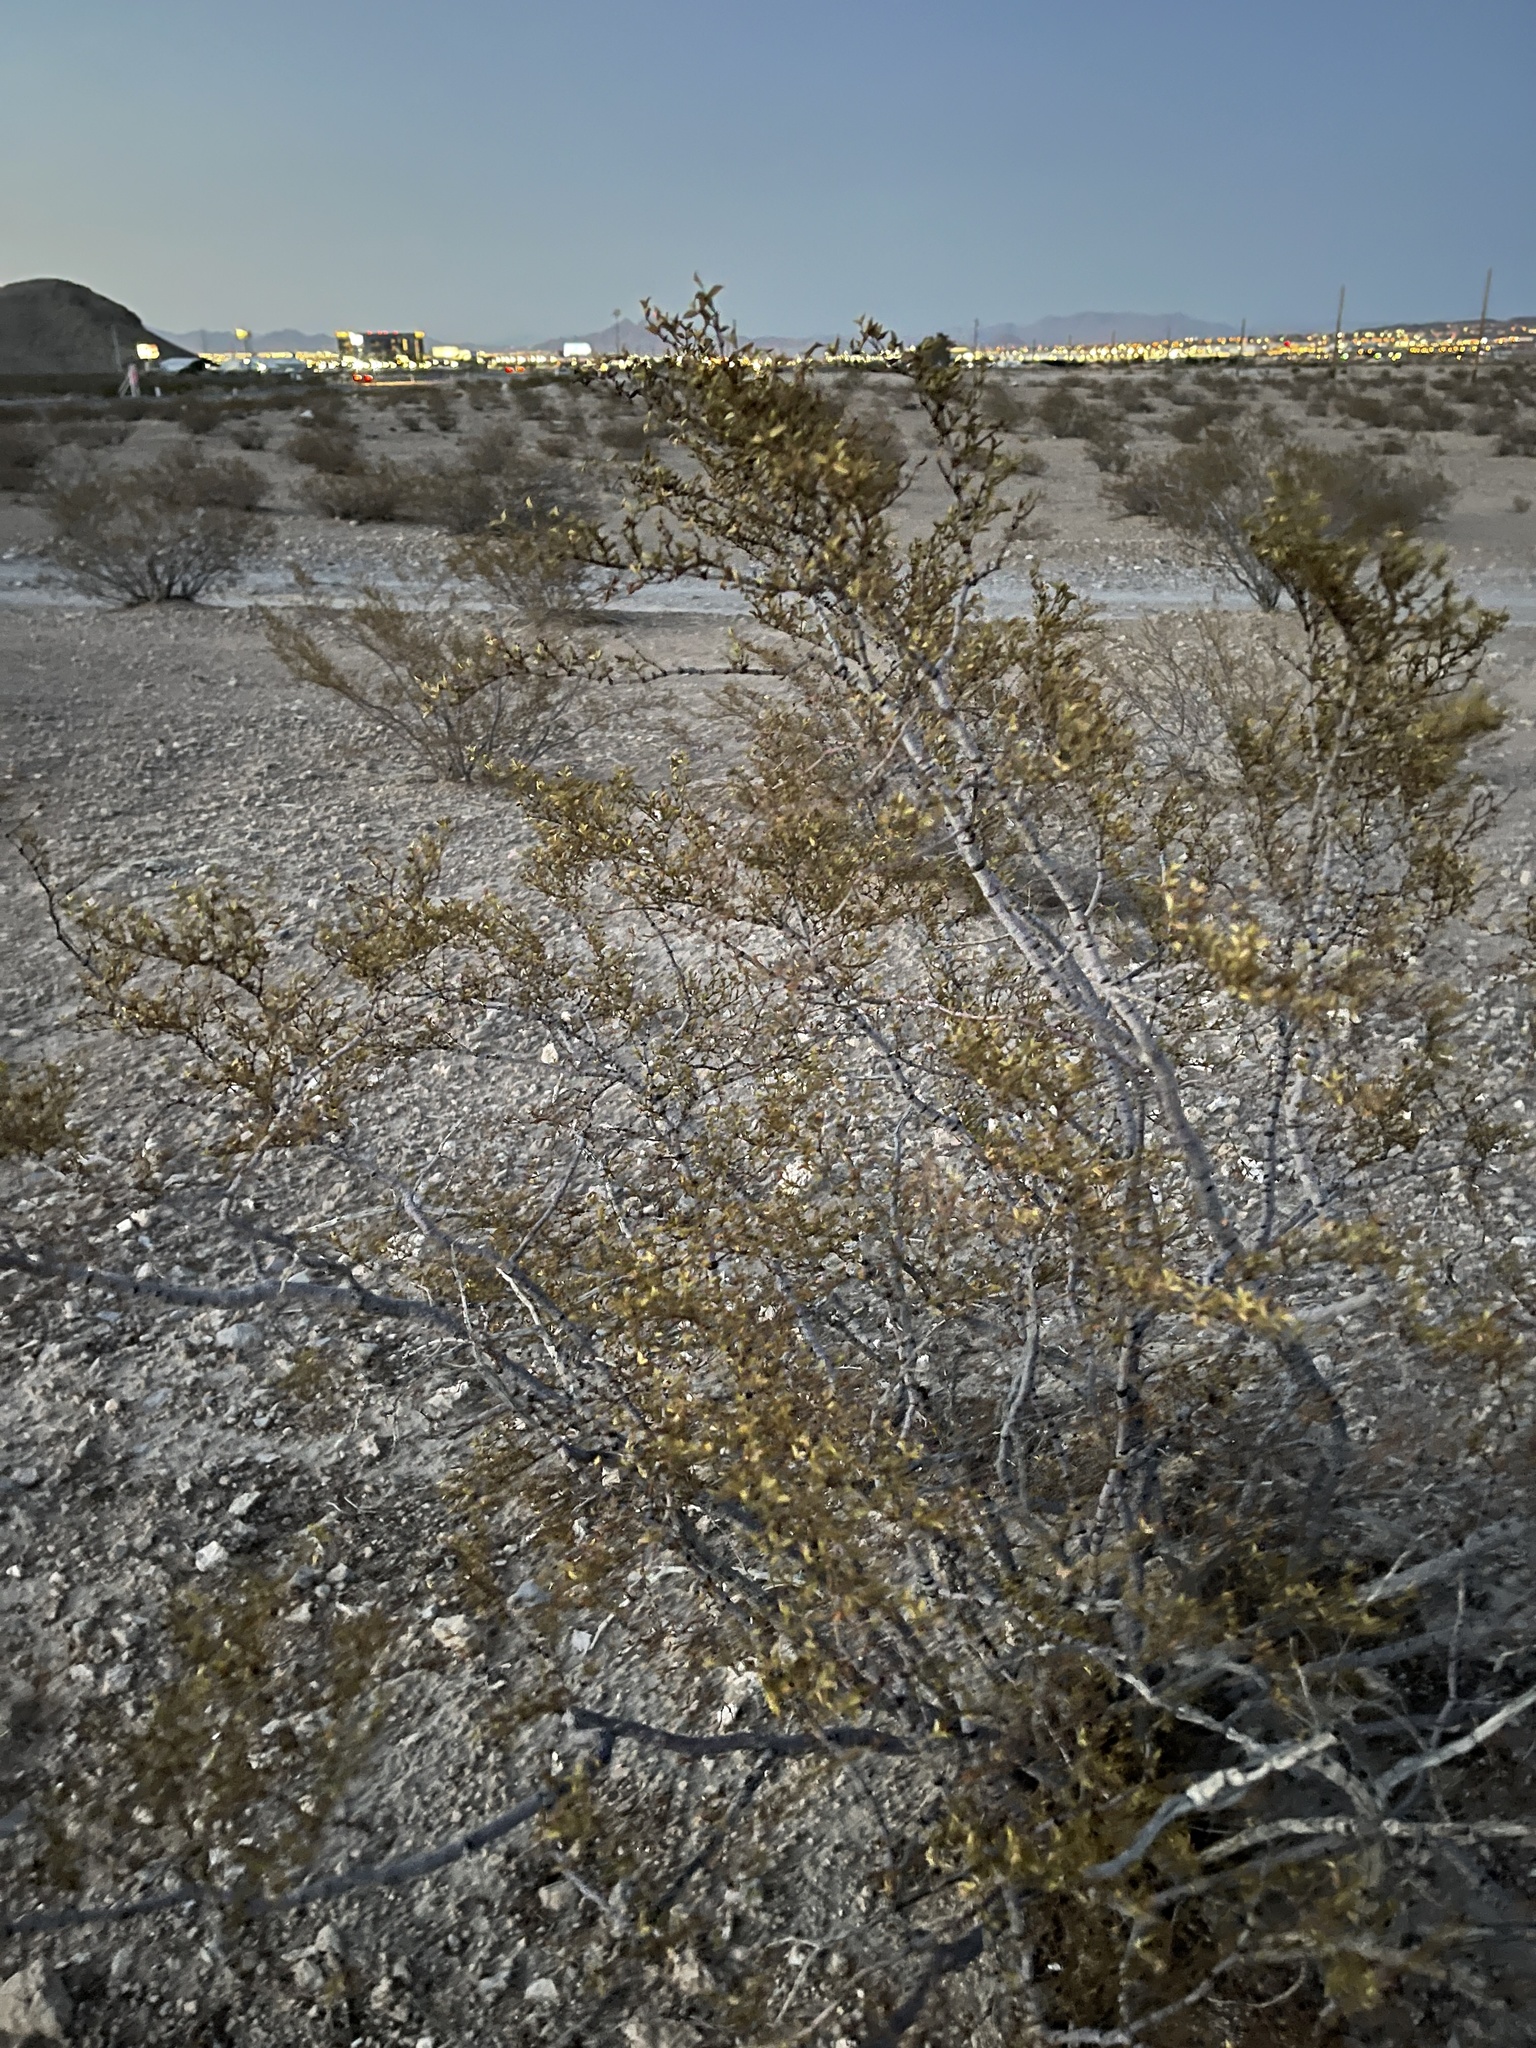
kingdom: Plantae
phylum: Tracheophyta
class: Magnoliopsida
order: Zygophyllales
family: Zygophyllaceae
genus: Larrea
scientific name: Larrea tridentata
